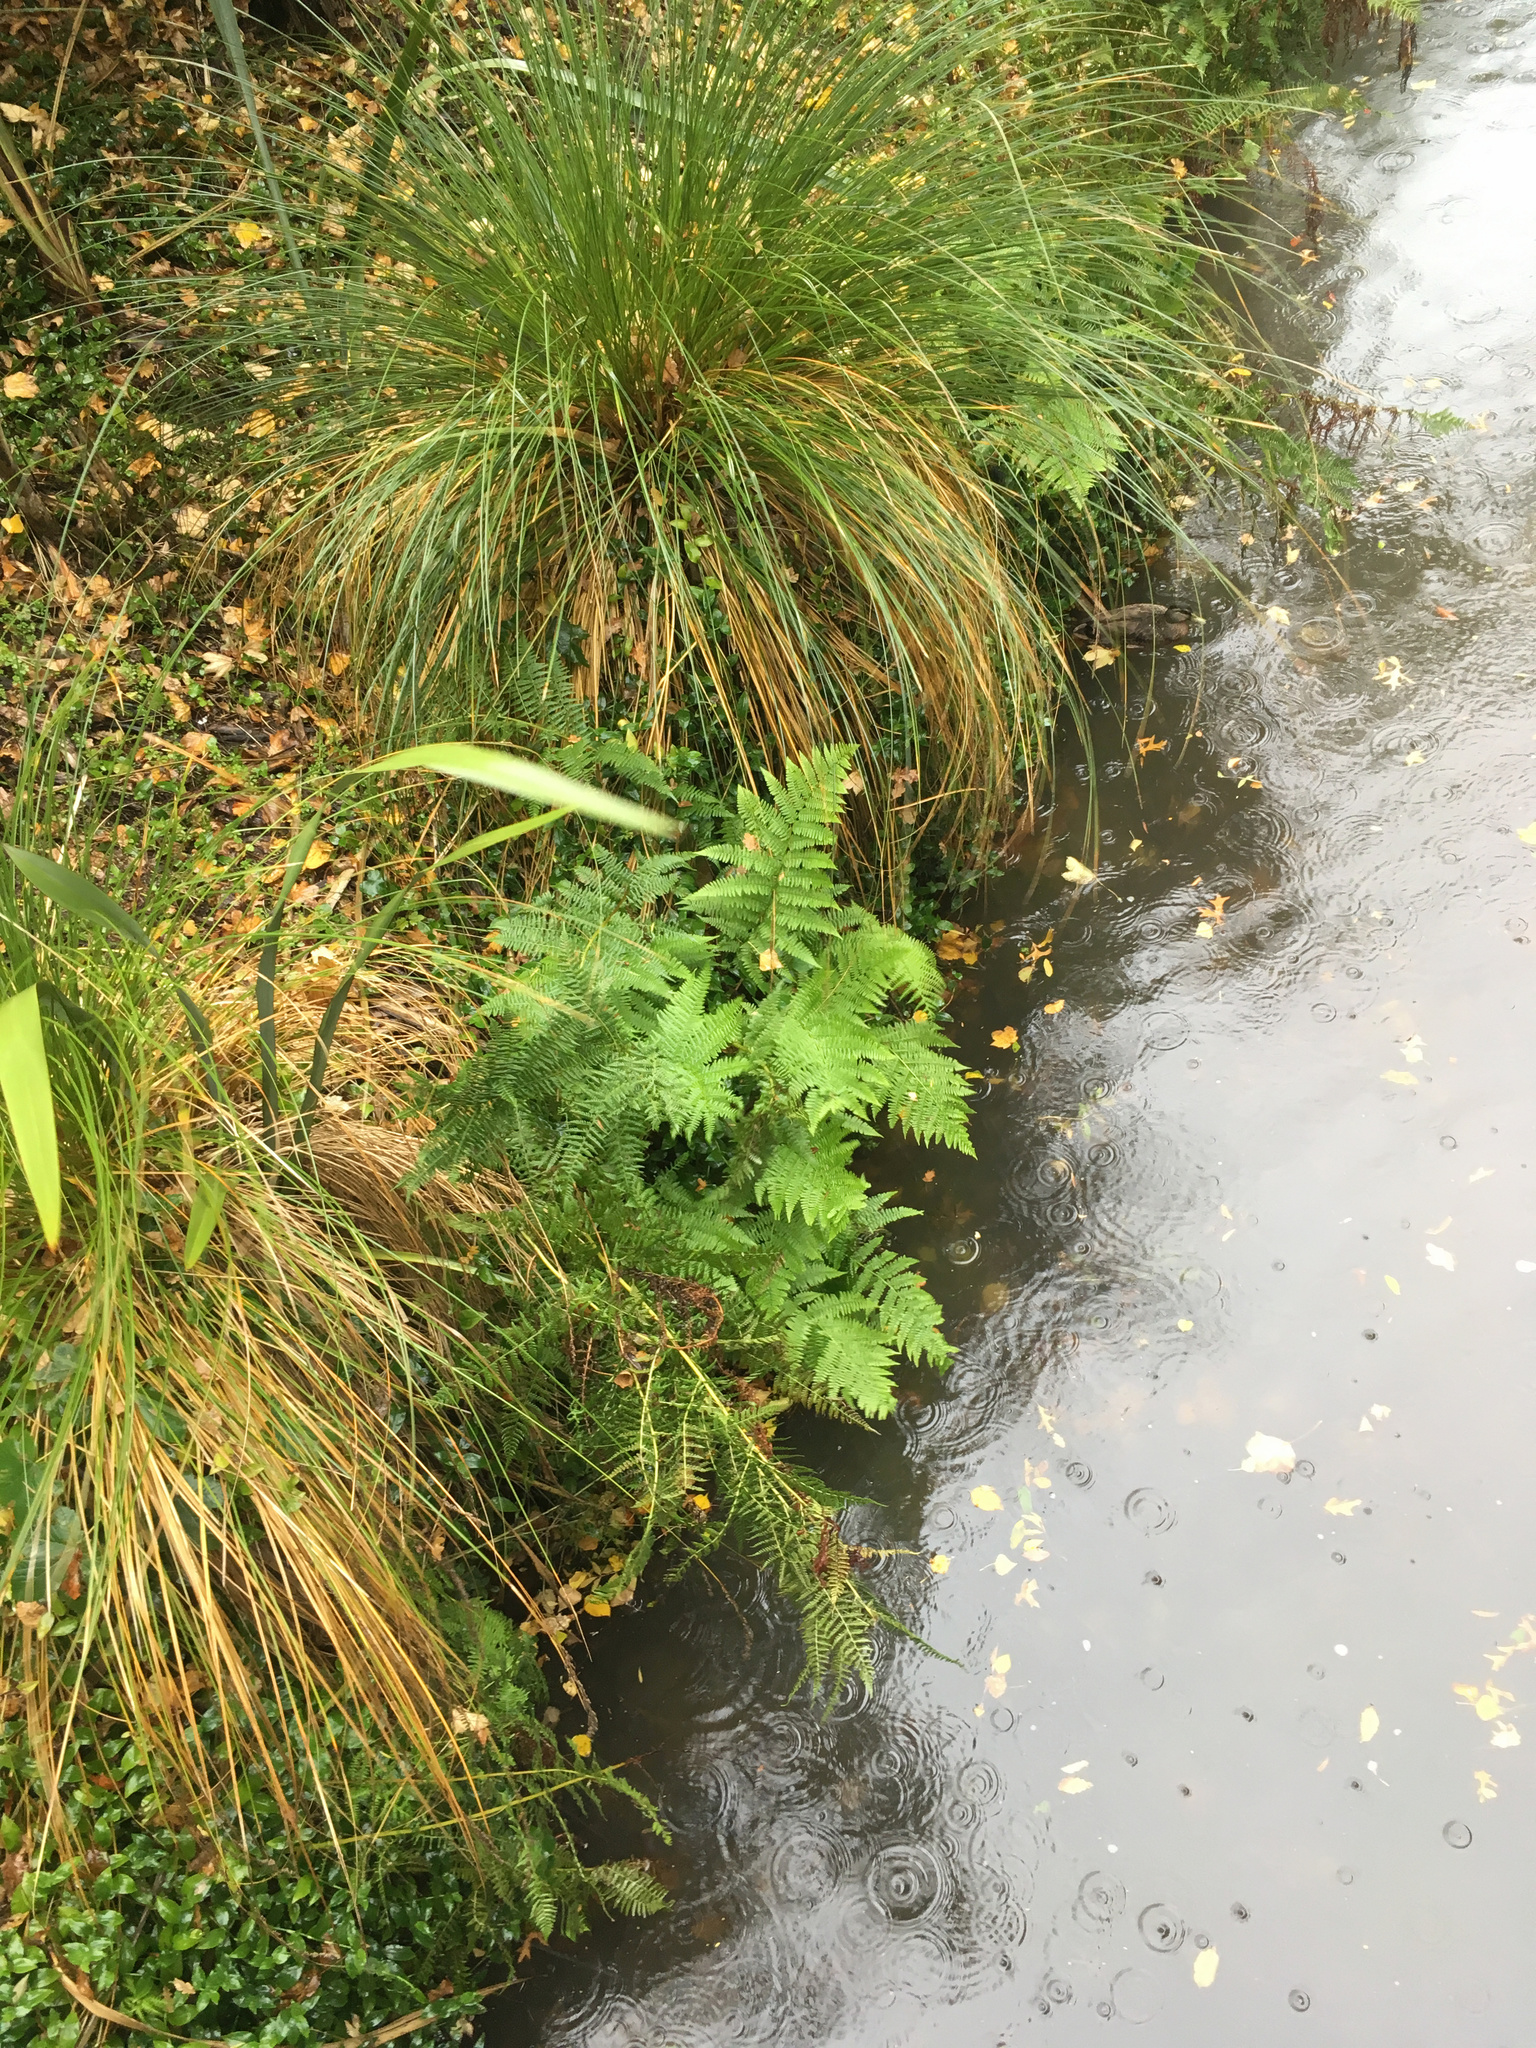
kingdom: Plantae
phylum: Tracheophyta
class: Polypodiopsida
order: Polypodiales
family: Athyriaceae
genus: Athyrium
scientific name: Athyrium filix-femina
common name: Lady fern
